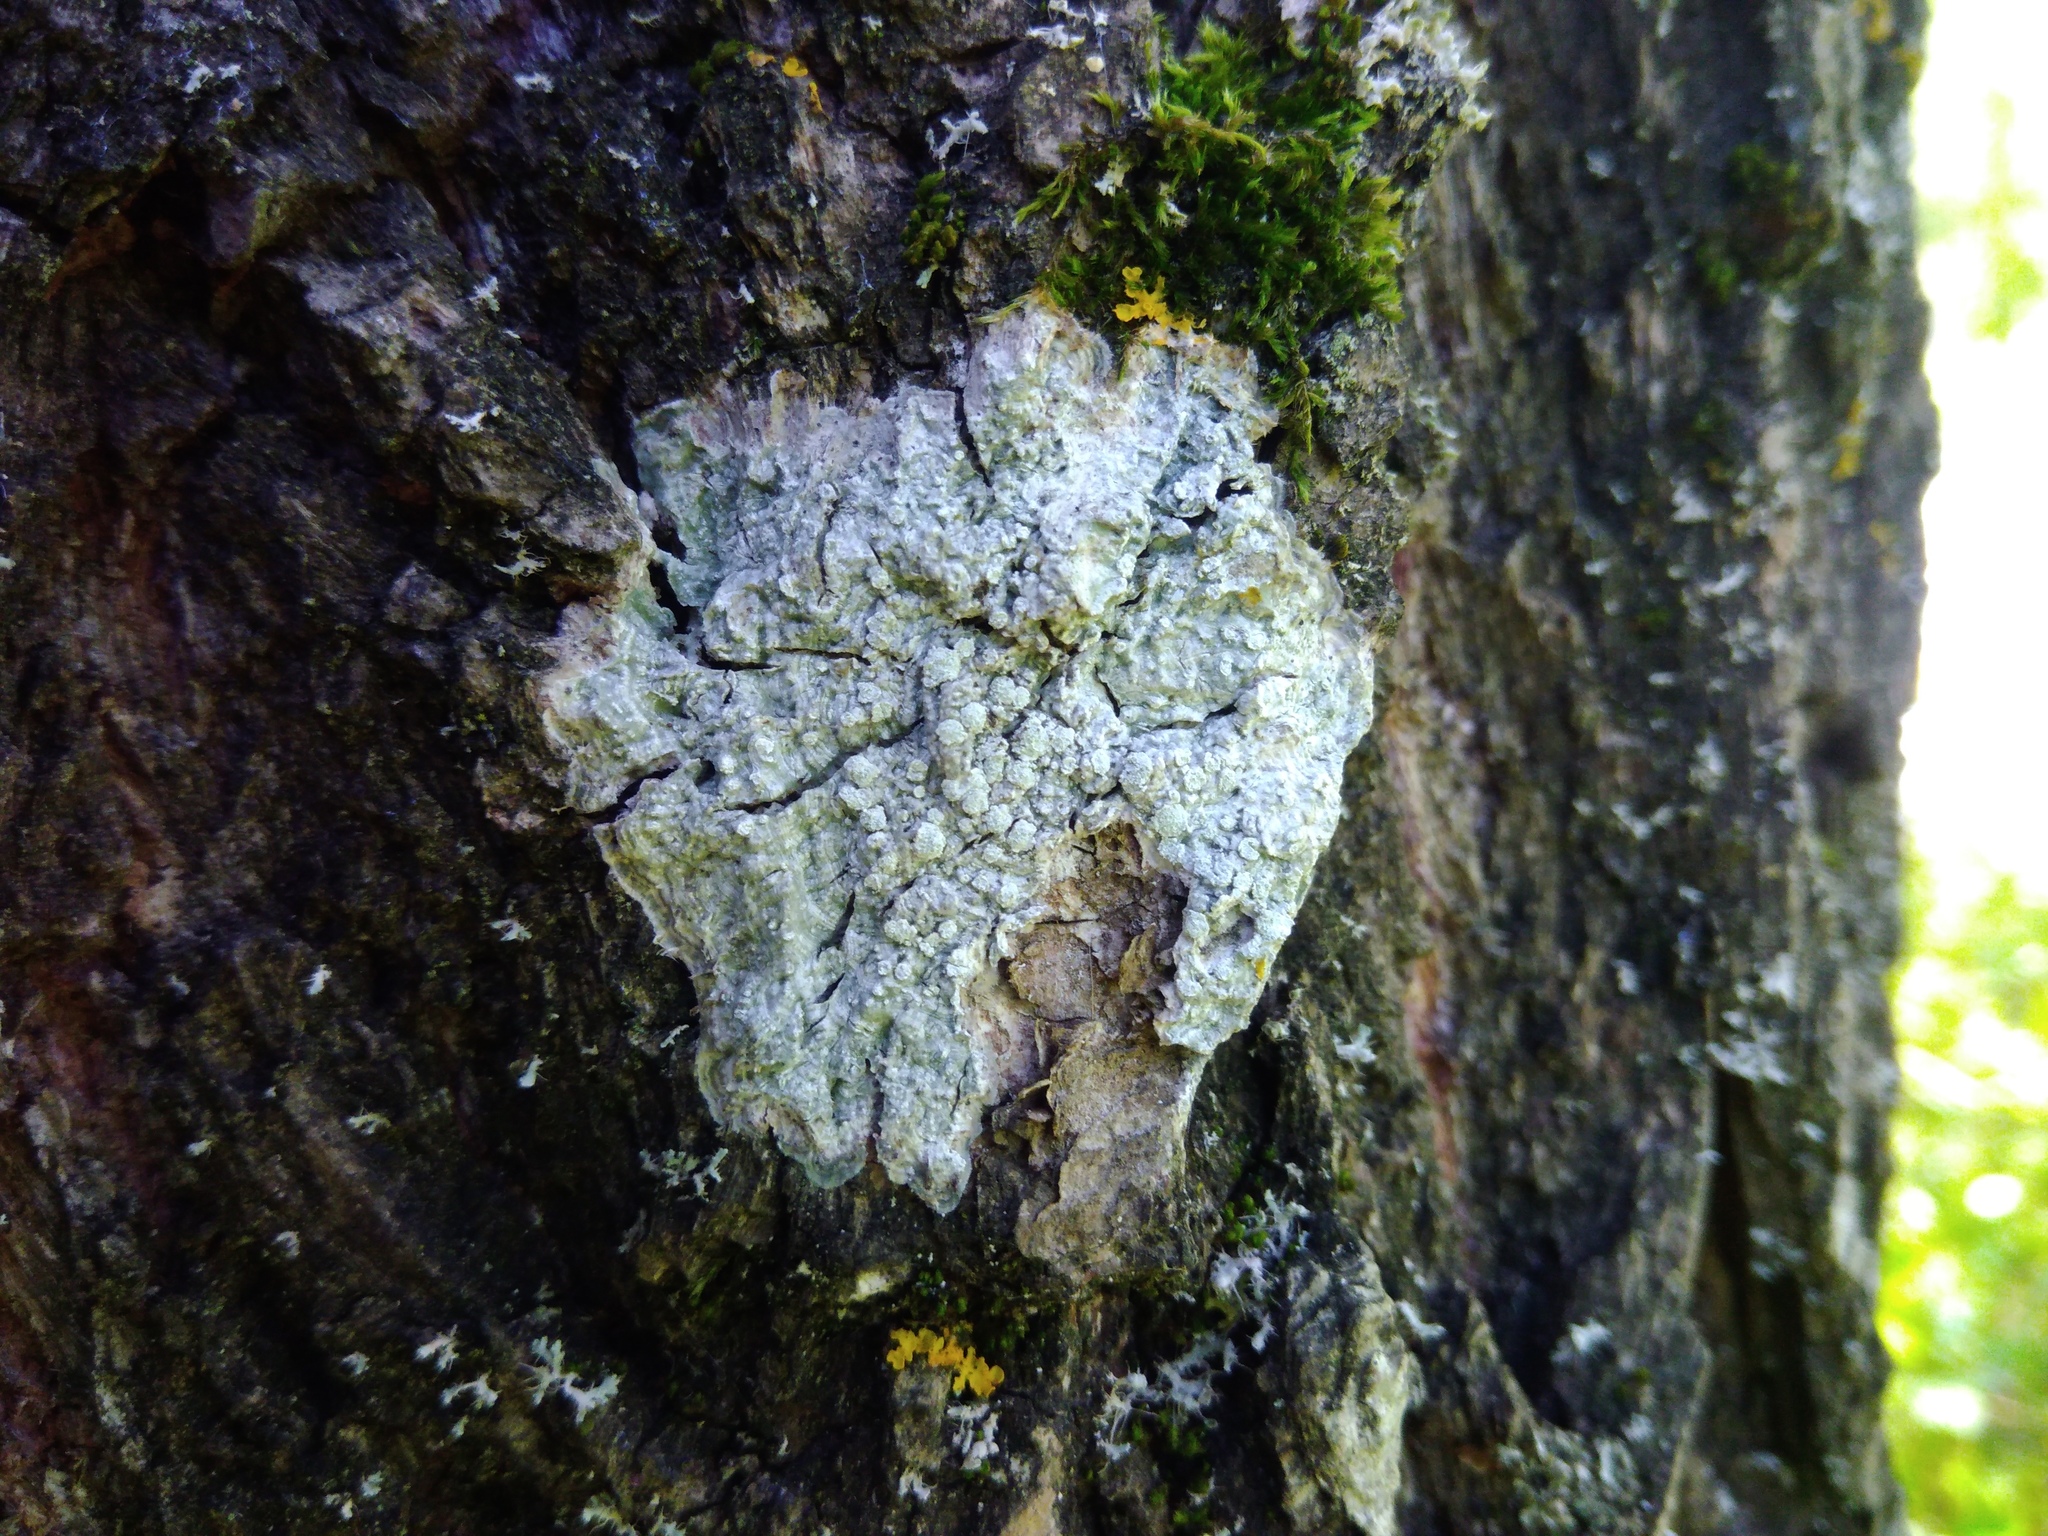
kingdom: Fungi
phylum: Ascomycota
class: Lecanoromycetes
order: Pertusariales
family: Pertusariaceae
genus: Lepra
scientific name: Lepra albescens
